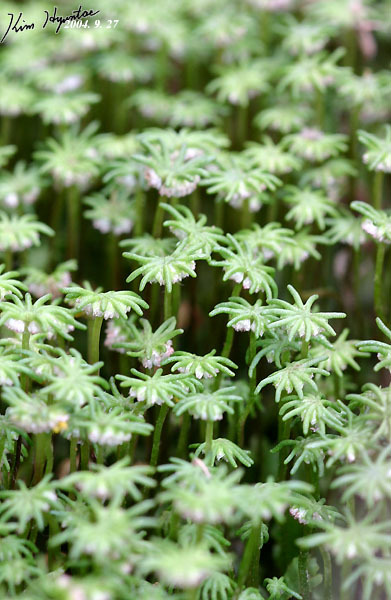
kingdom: Plantae
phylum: Marchantiophyta
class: Marchantiopsida
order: Marchantiales
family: Marchantiaceae
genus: Marchantia
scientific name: Marchantia polymorpha
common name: Common liverwort
